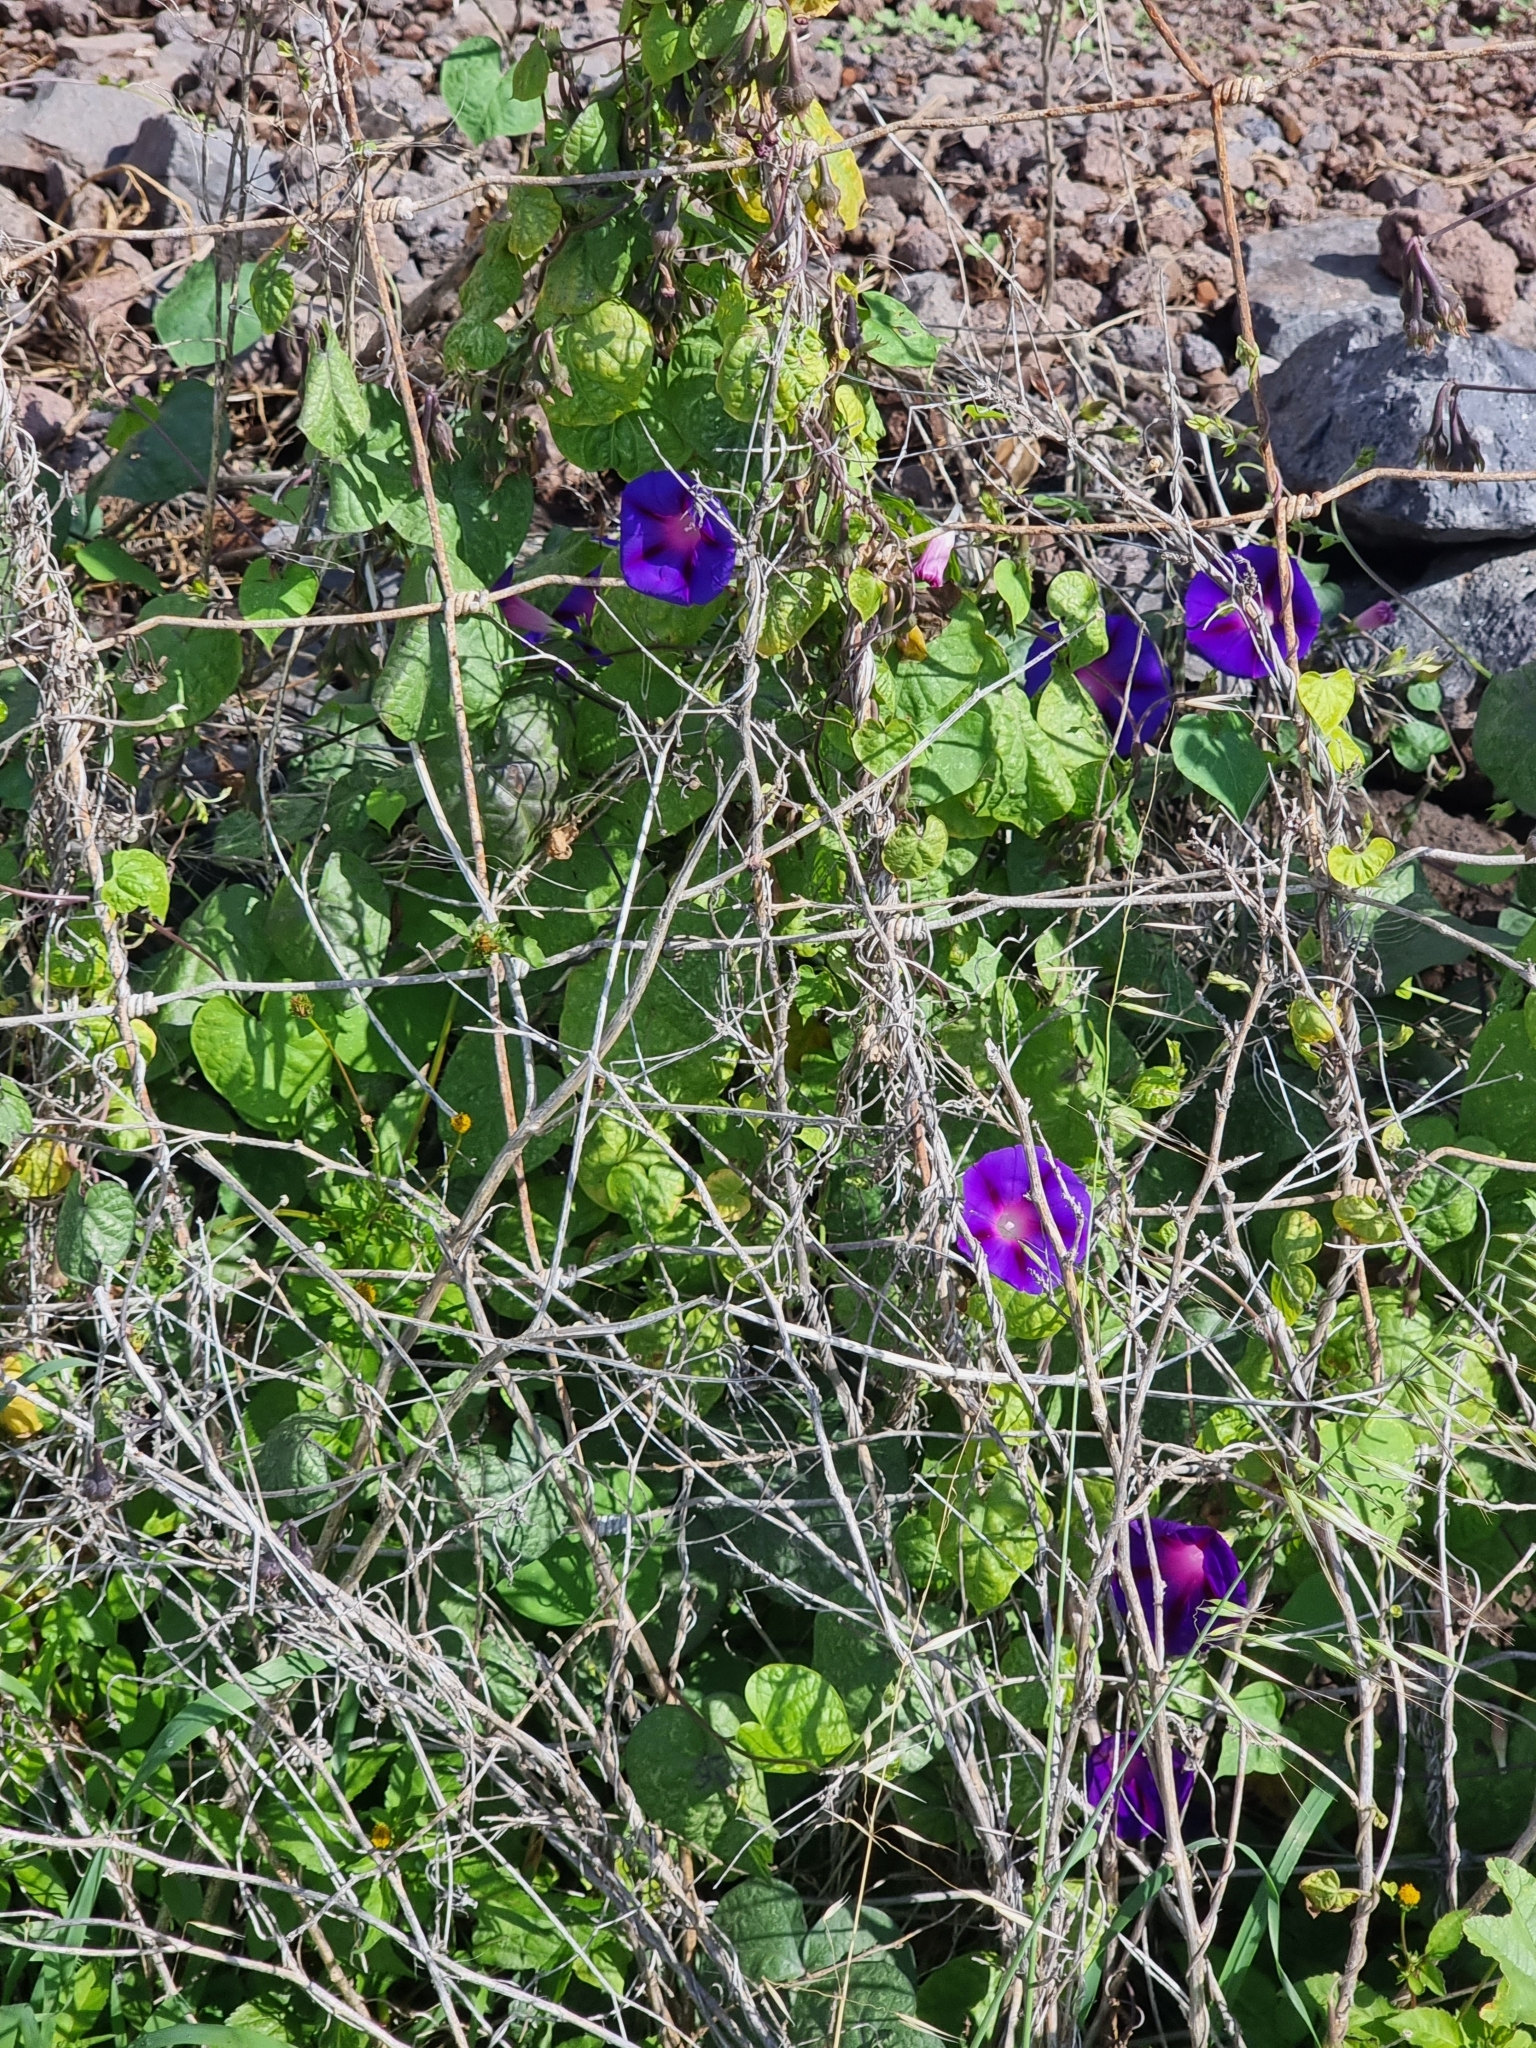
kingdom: Plantae
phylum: Tracheophyta
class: Magnoliopsida
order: Solanales
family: Convolvulaceae
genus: Ipomoea
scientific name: Ipomoea purpurea
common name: Common morning-glory
